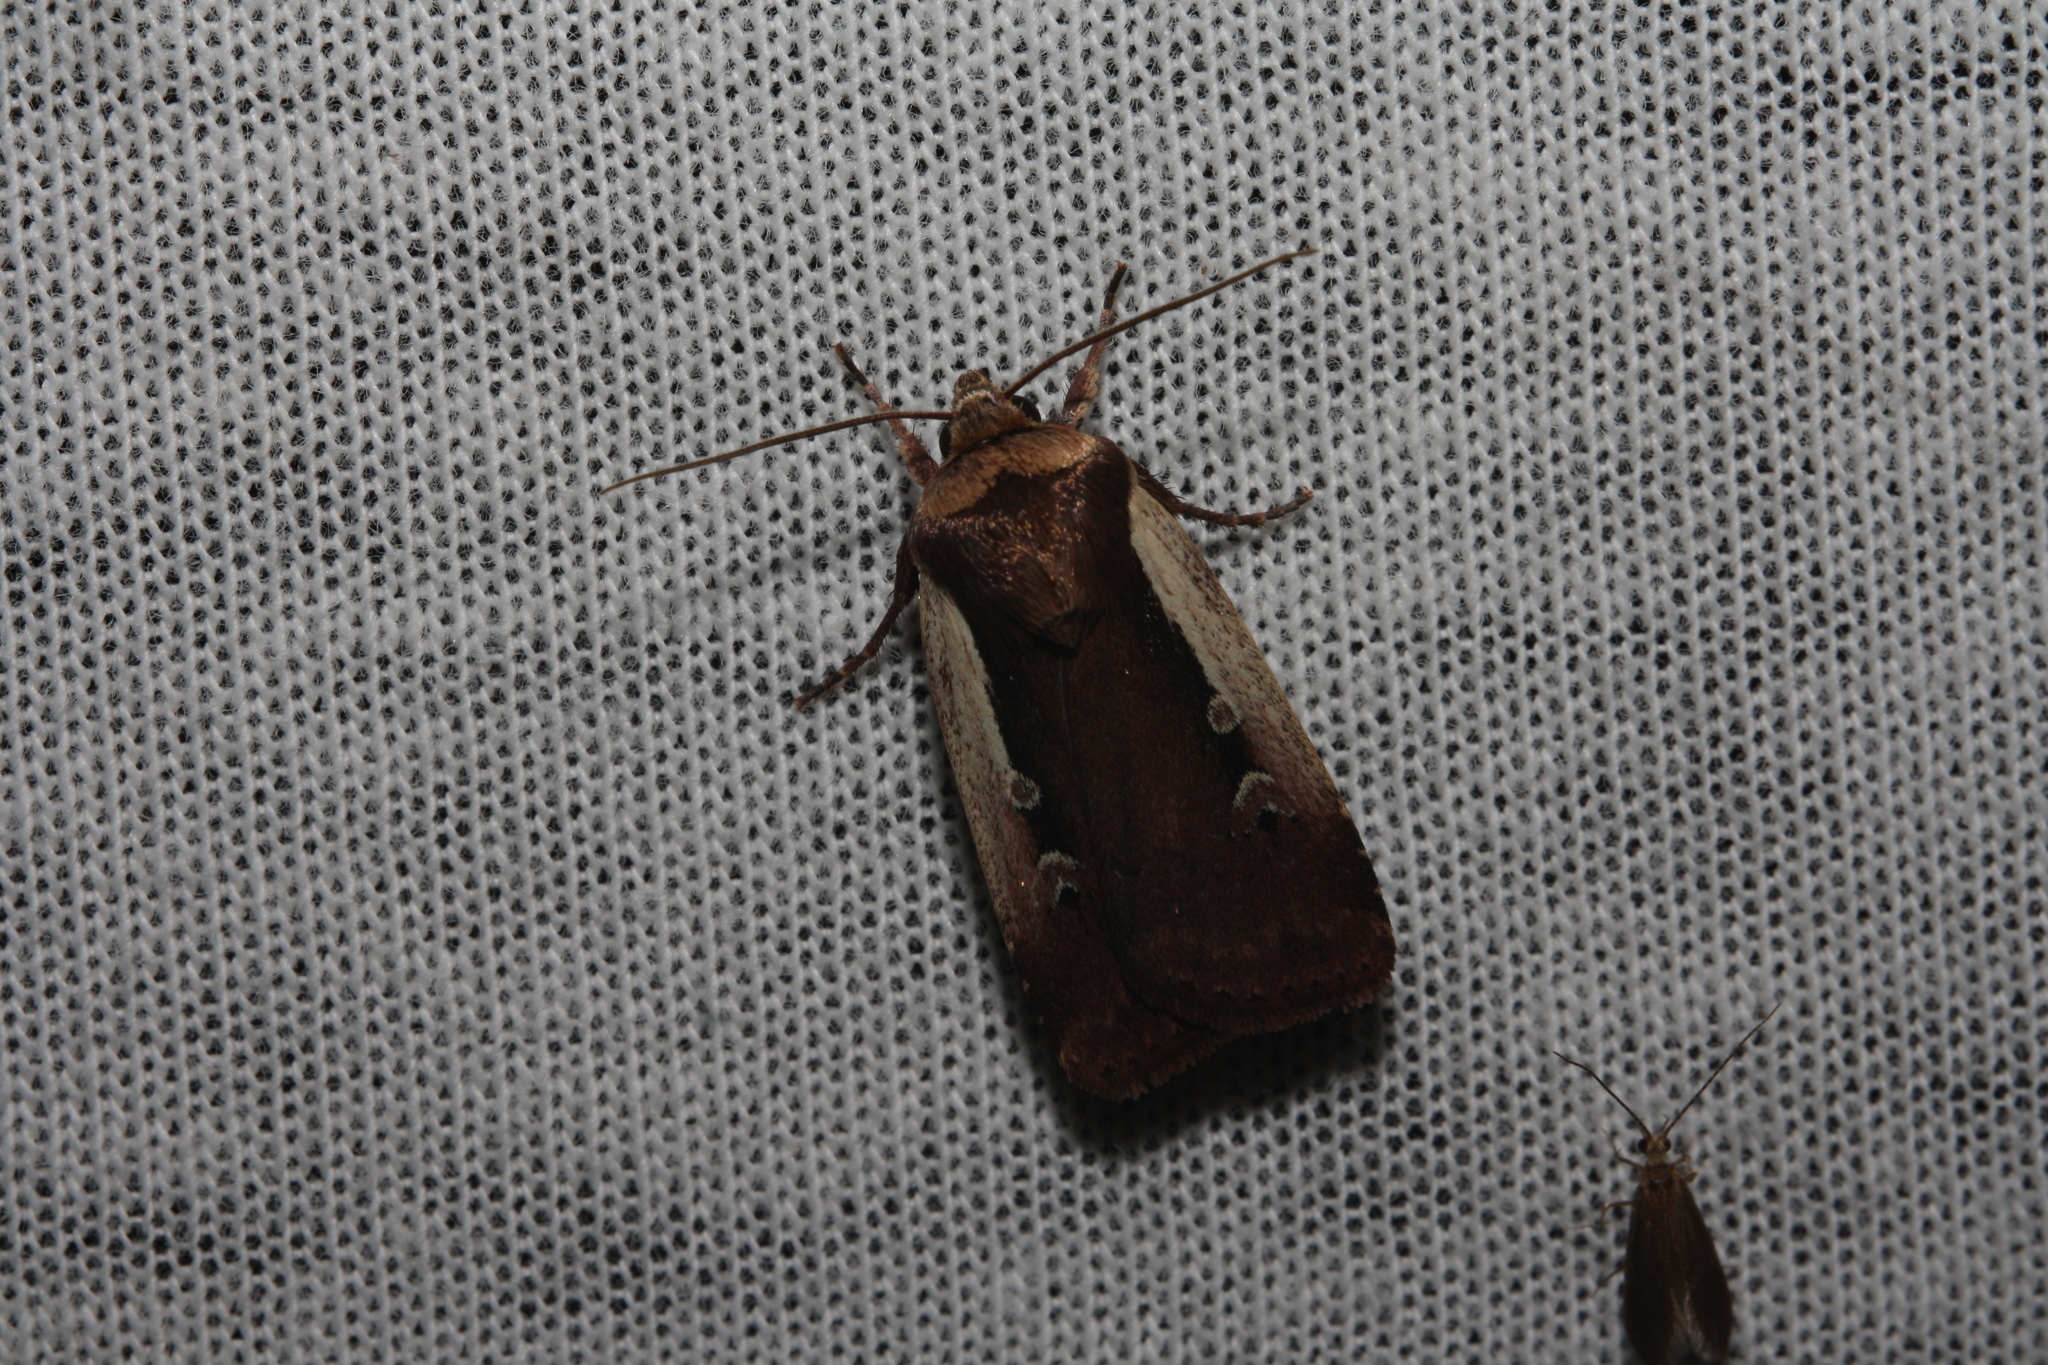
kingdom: Animalia
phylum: Arthropoda
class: Insecta
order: Lepidoptera
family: Noctuidae
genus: Ochropleura
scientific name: Ochropleura plecta
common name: Flame shoulder
